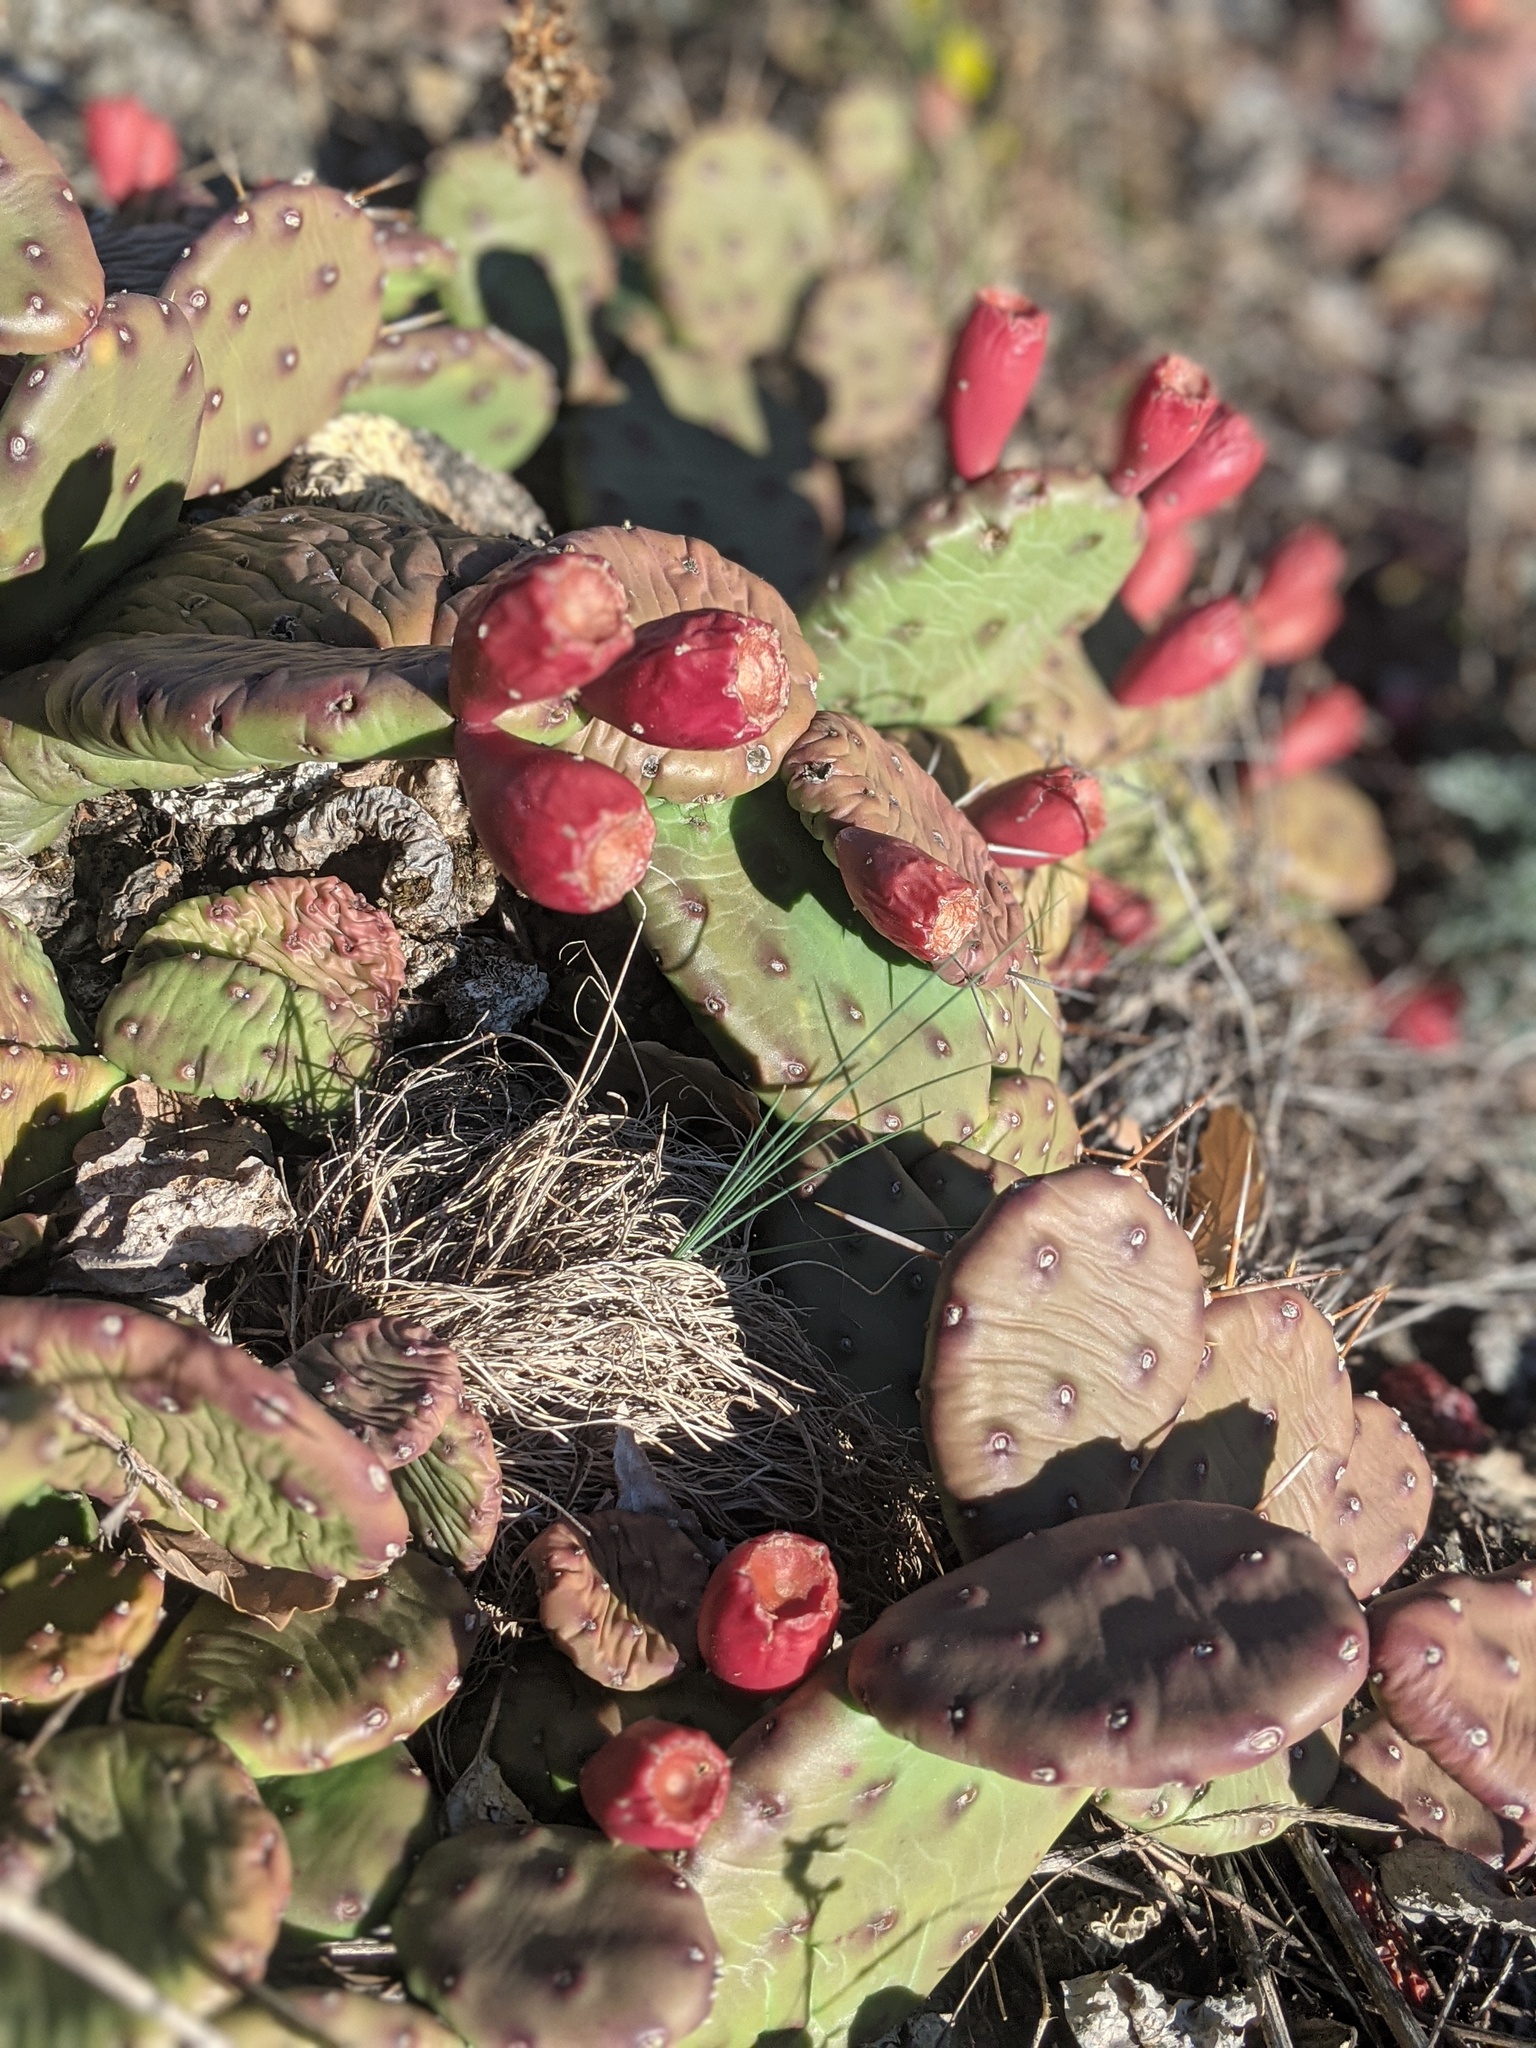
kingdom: Plantae
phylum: Tracheophyta
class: Magnoliopsida
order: Caryophyllales
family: Cactaceae
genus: Opuntia
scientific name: Opuntia humifusa
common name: Eastern prickly-pear
